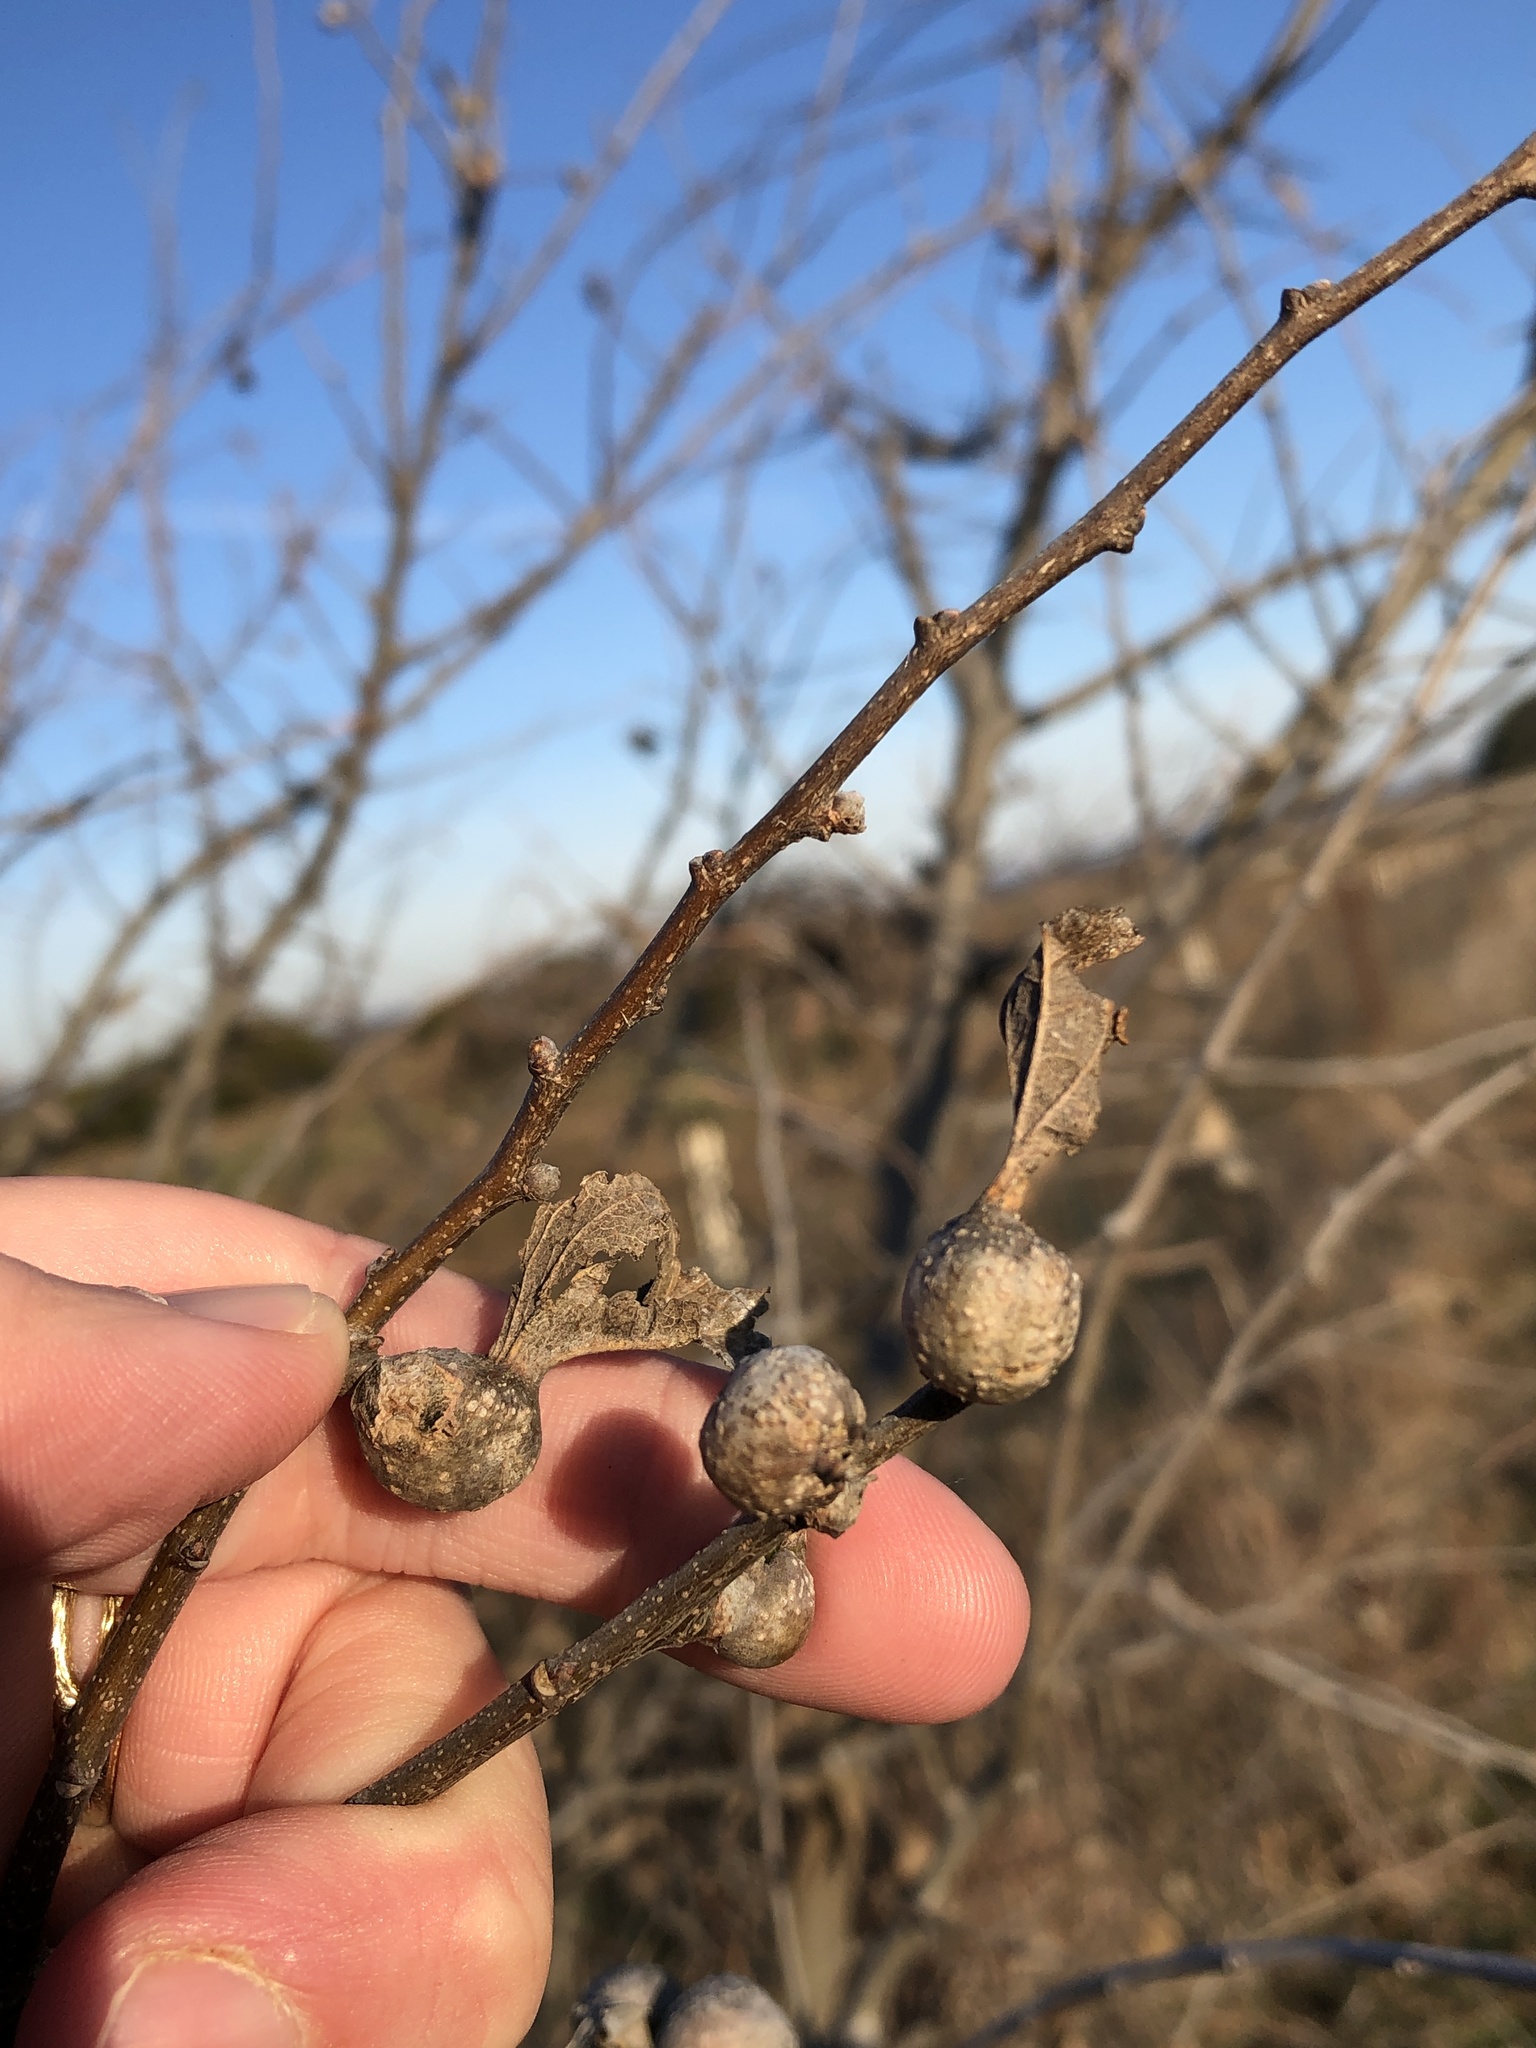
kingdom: Animalia
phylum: Arthropoda
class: Insecta
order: Hemiptera
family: Aphalaridae
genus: Pachypsylla
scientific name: Pachypsylla venusta
